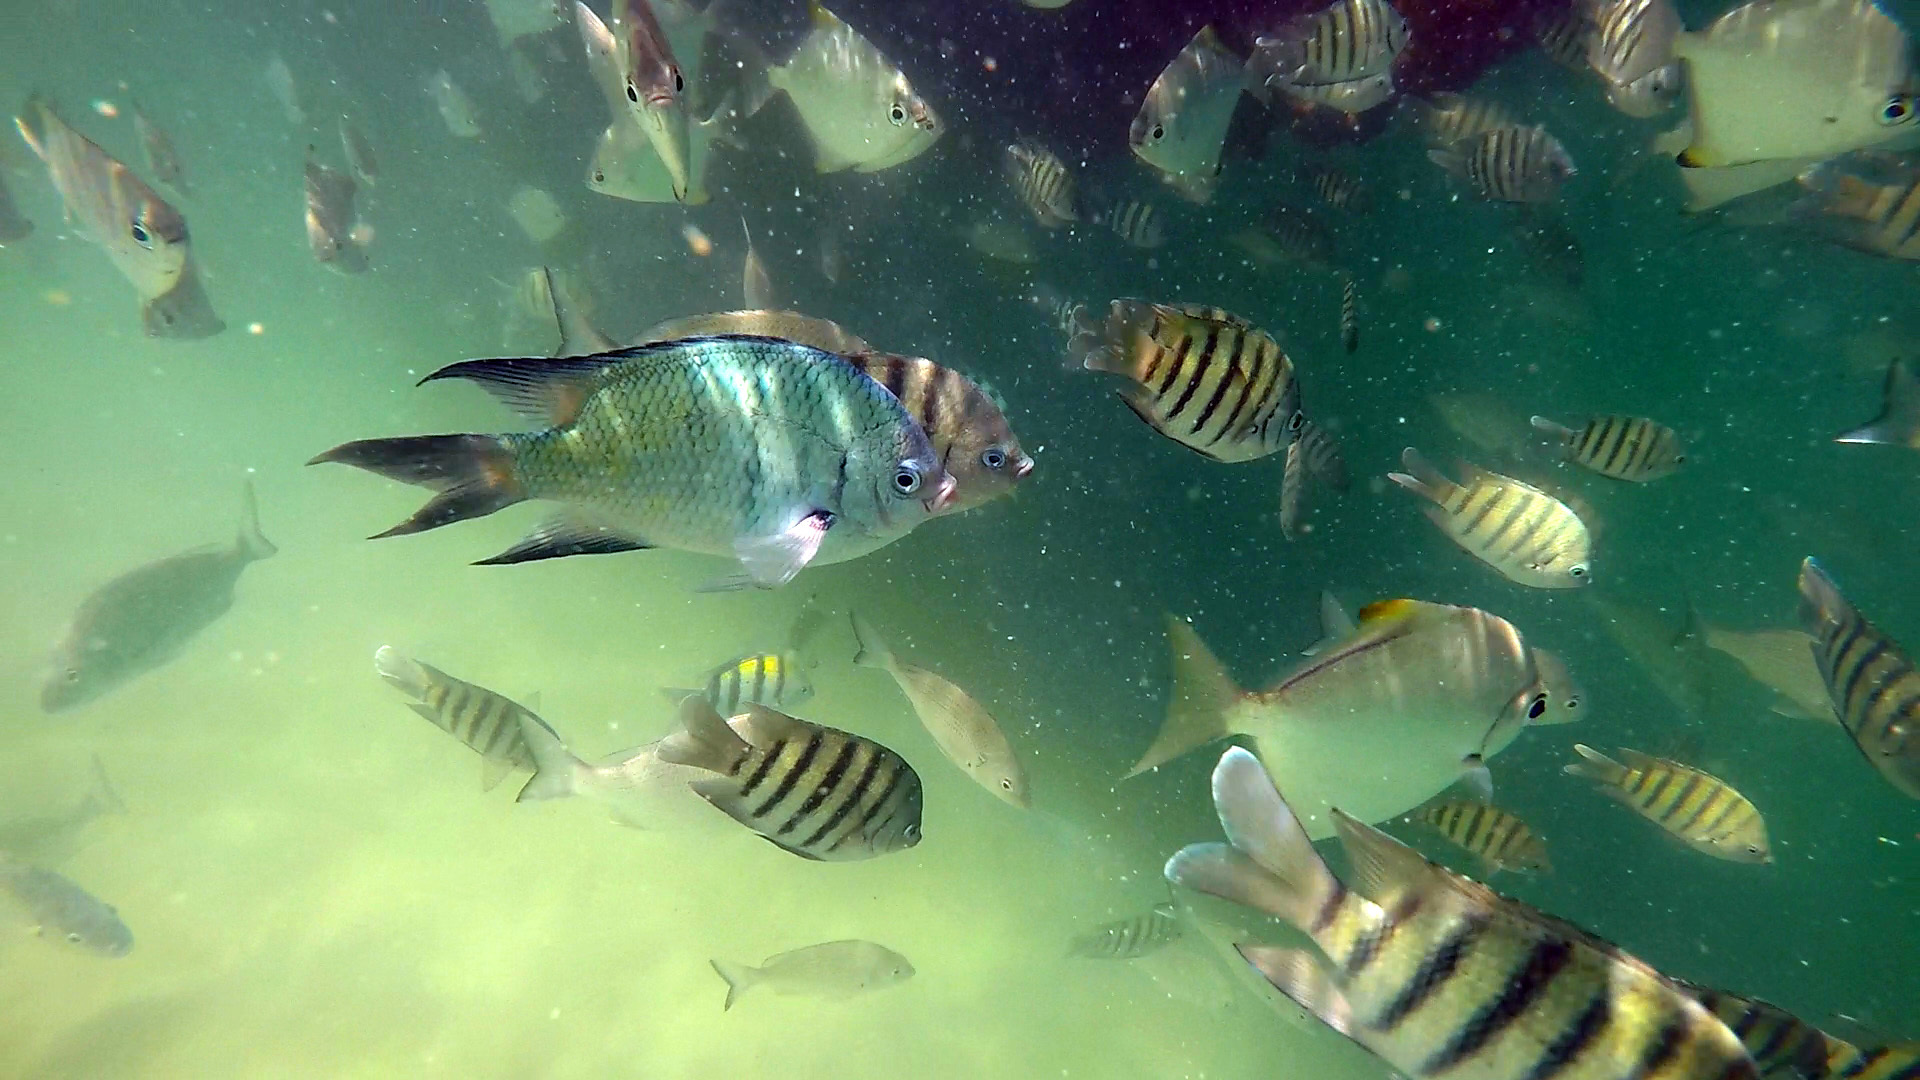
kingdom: Animalia
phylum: Chordata
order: Perciformes
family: Pomacentridae
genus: Abudefduf
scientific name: Abudefduf whitleyi
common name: Whitley's seargent
